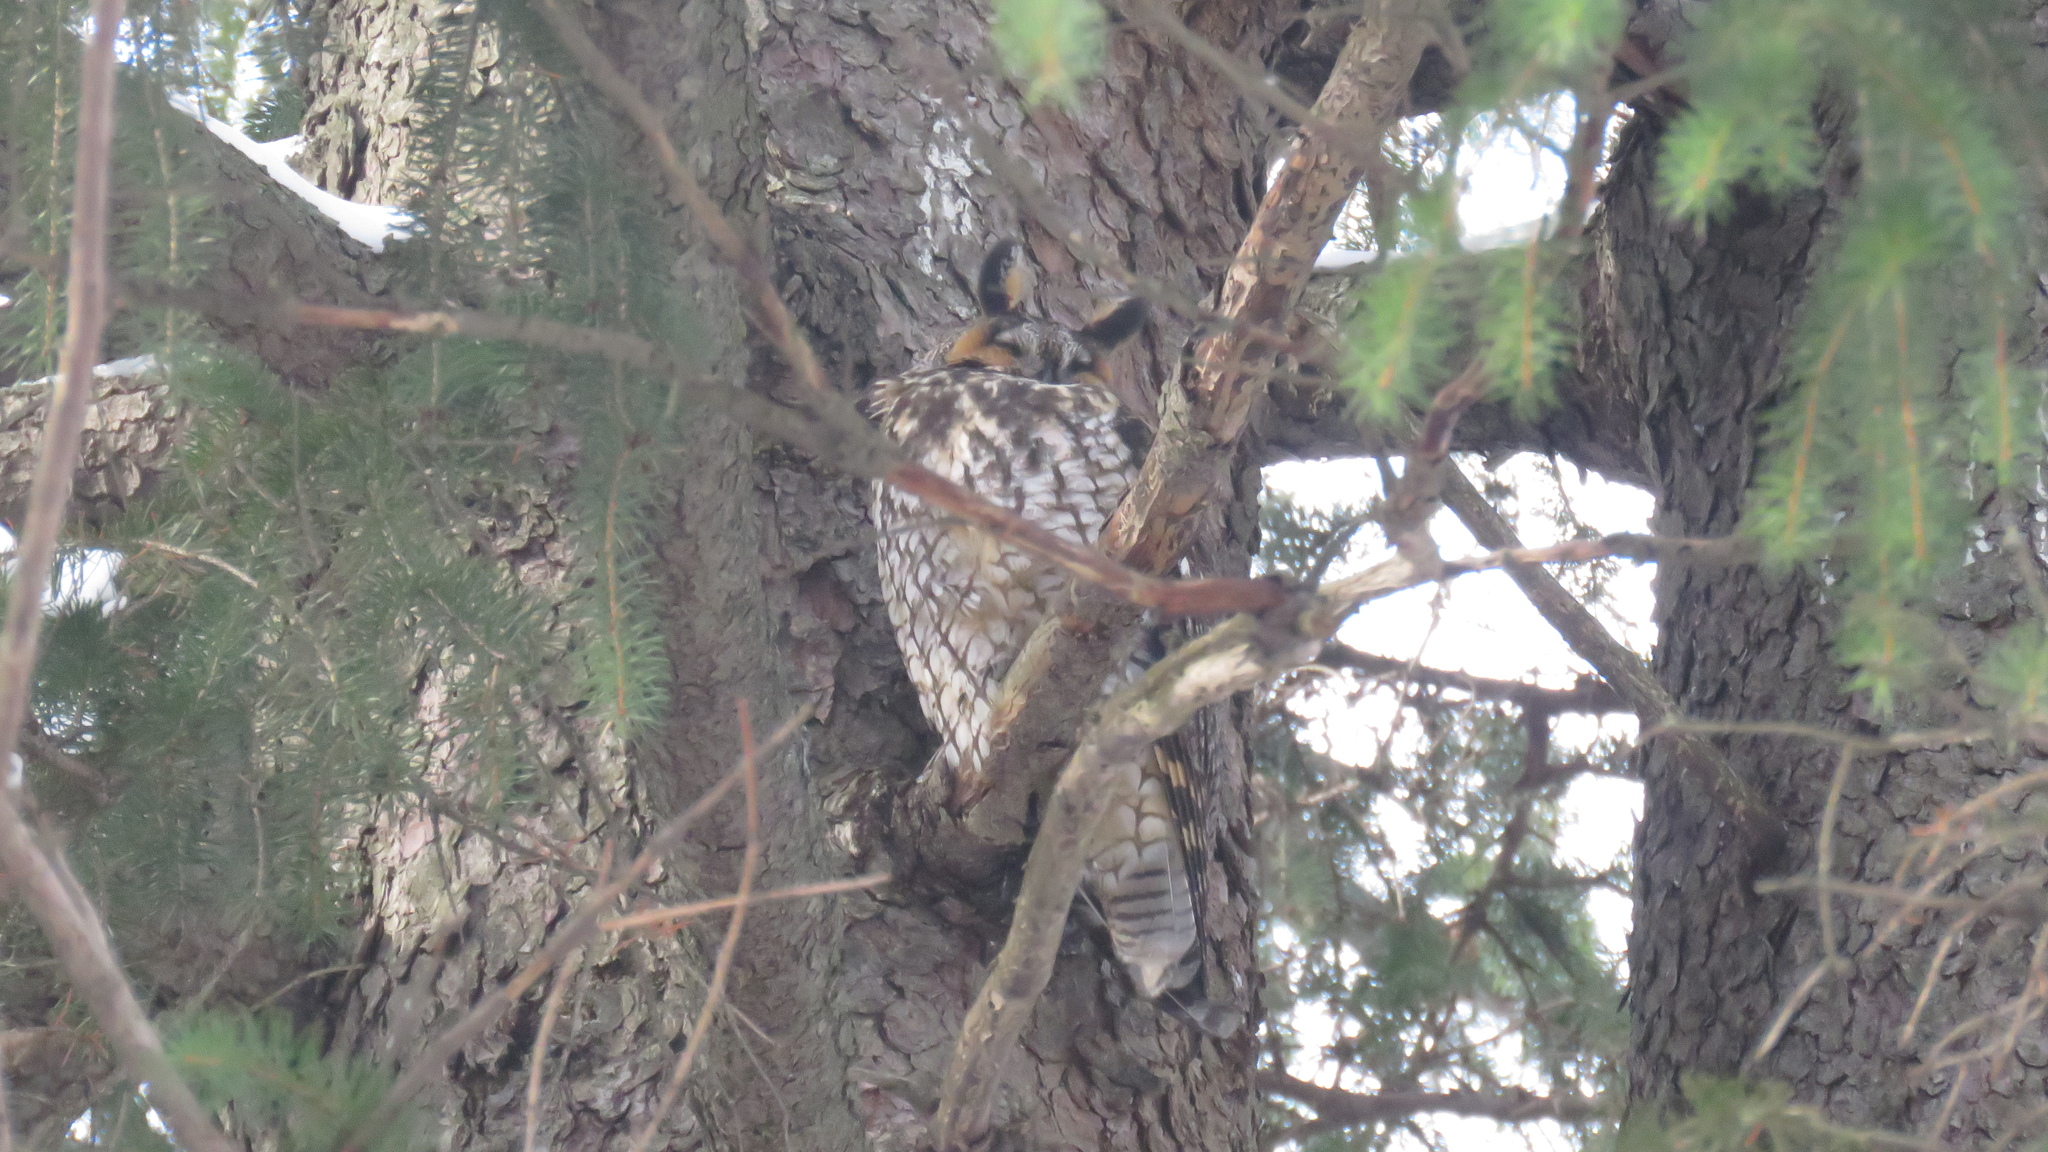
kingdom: Animalia
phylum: Chordata
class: Aves
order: Strigiformes
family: Strigidae
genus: Asio
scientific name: Asio otus
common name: Long-eared owl
